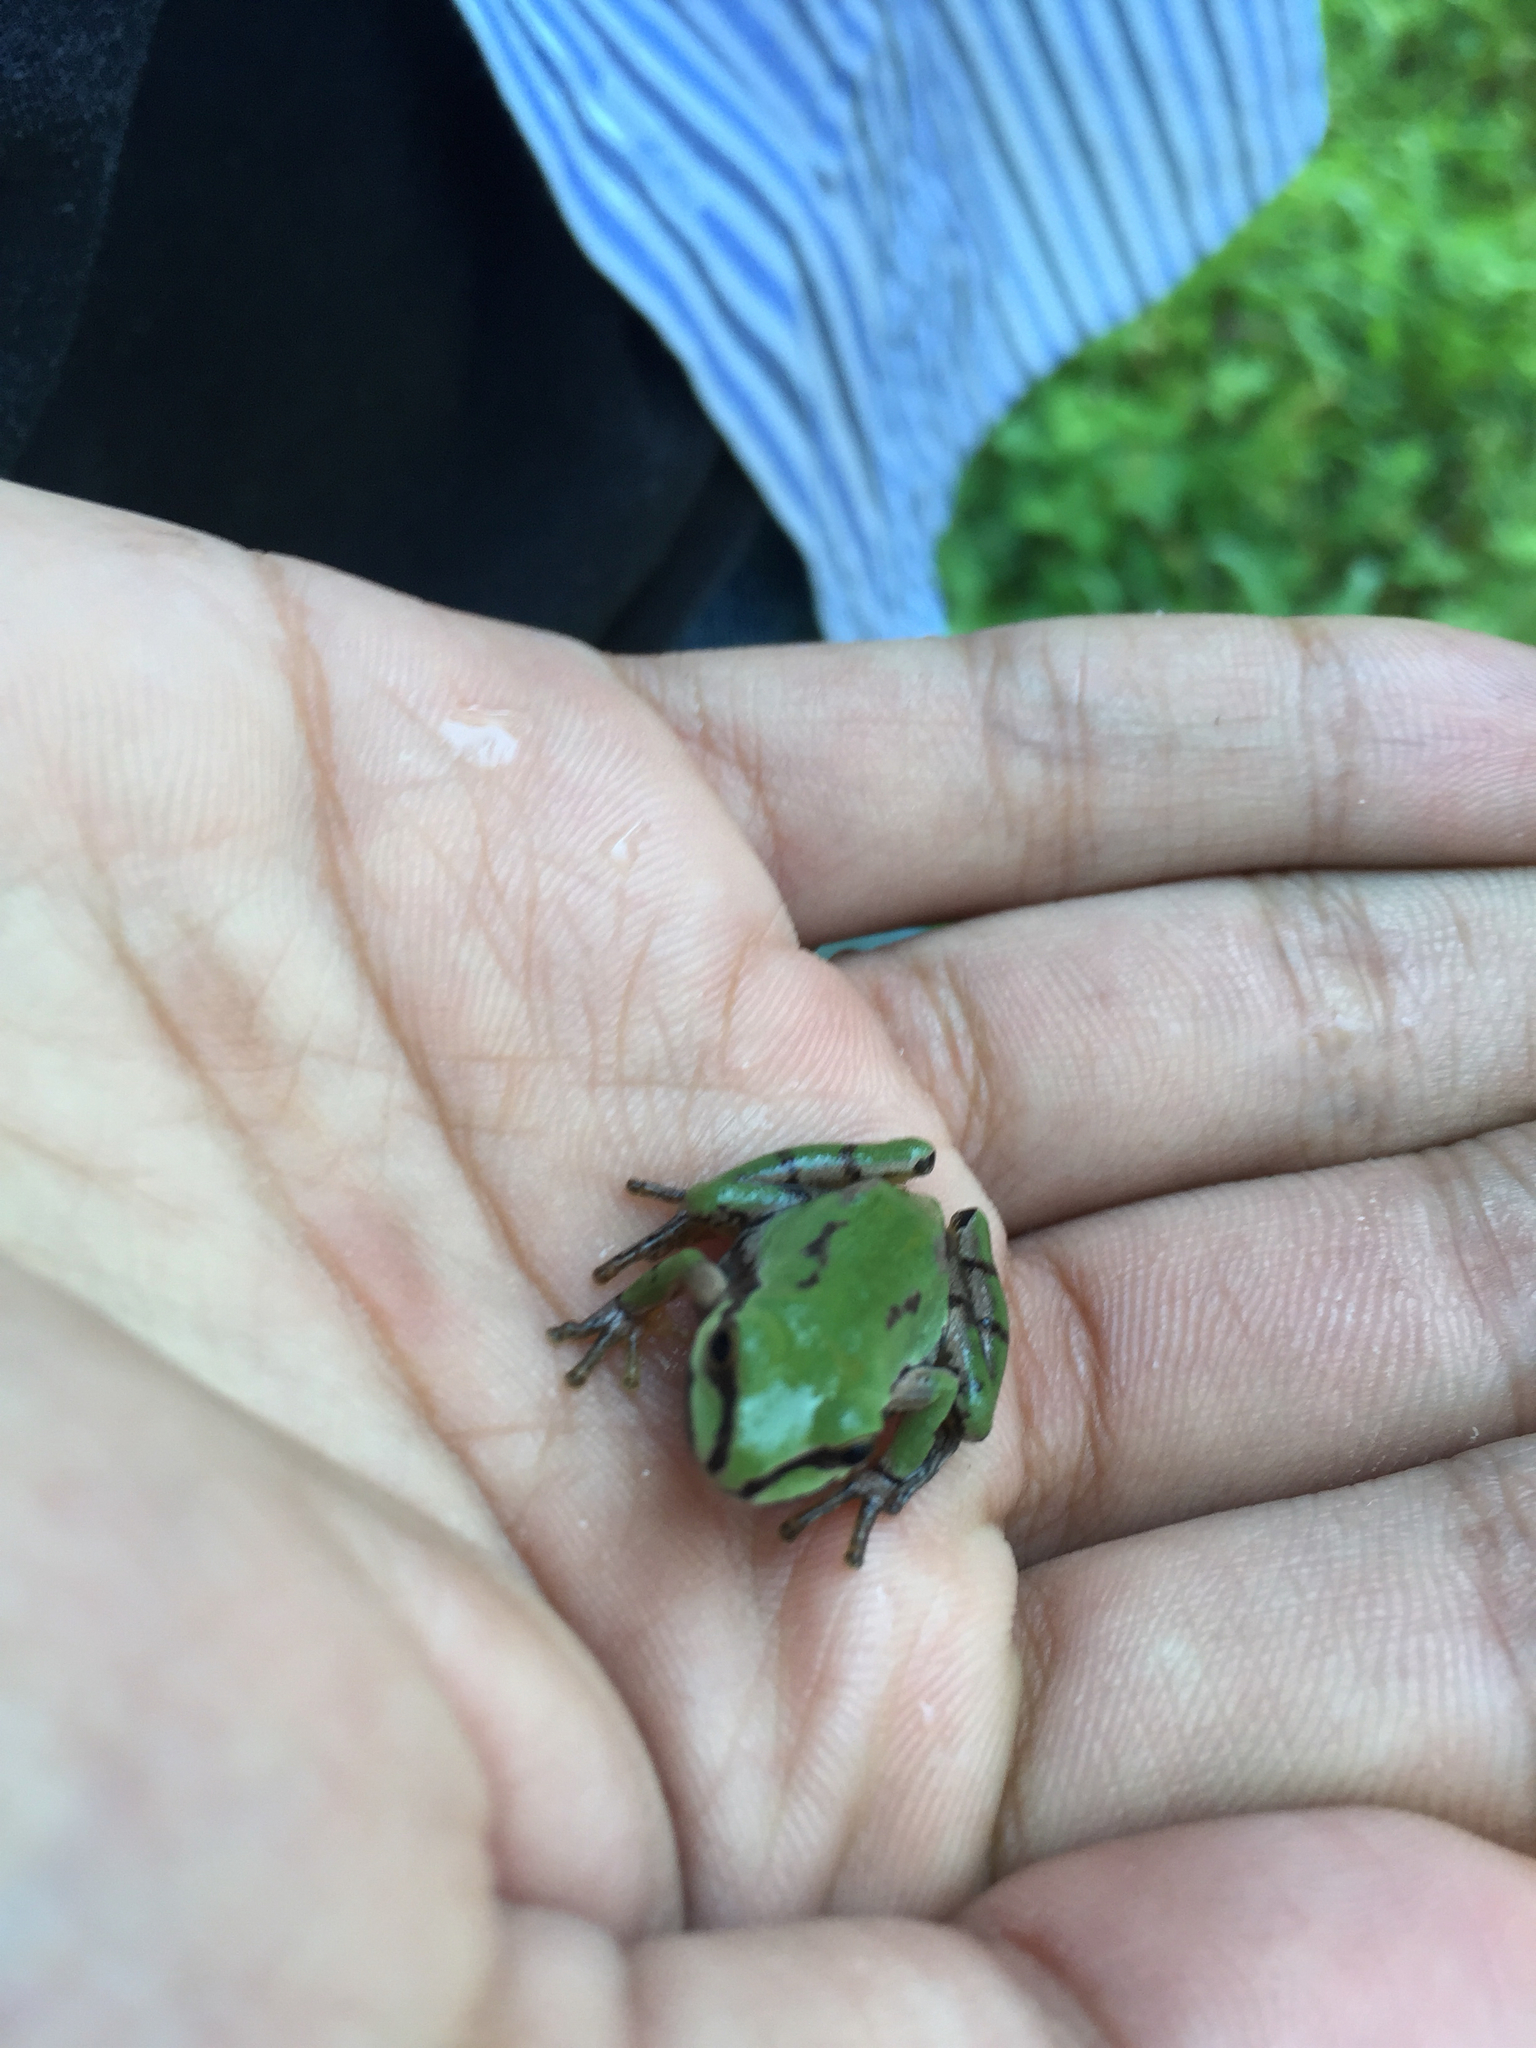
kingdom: Animalia
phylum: Chordata
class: Amphibia
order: Anura
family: Hylidae
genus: Dryophytes
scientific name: Dryophytes wrightorum
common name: Arizona treefrog
